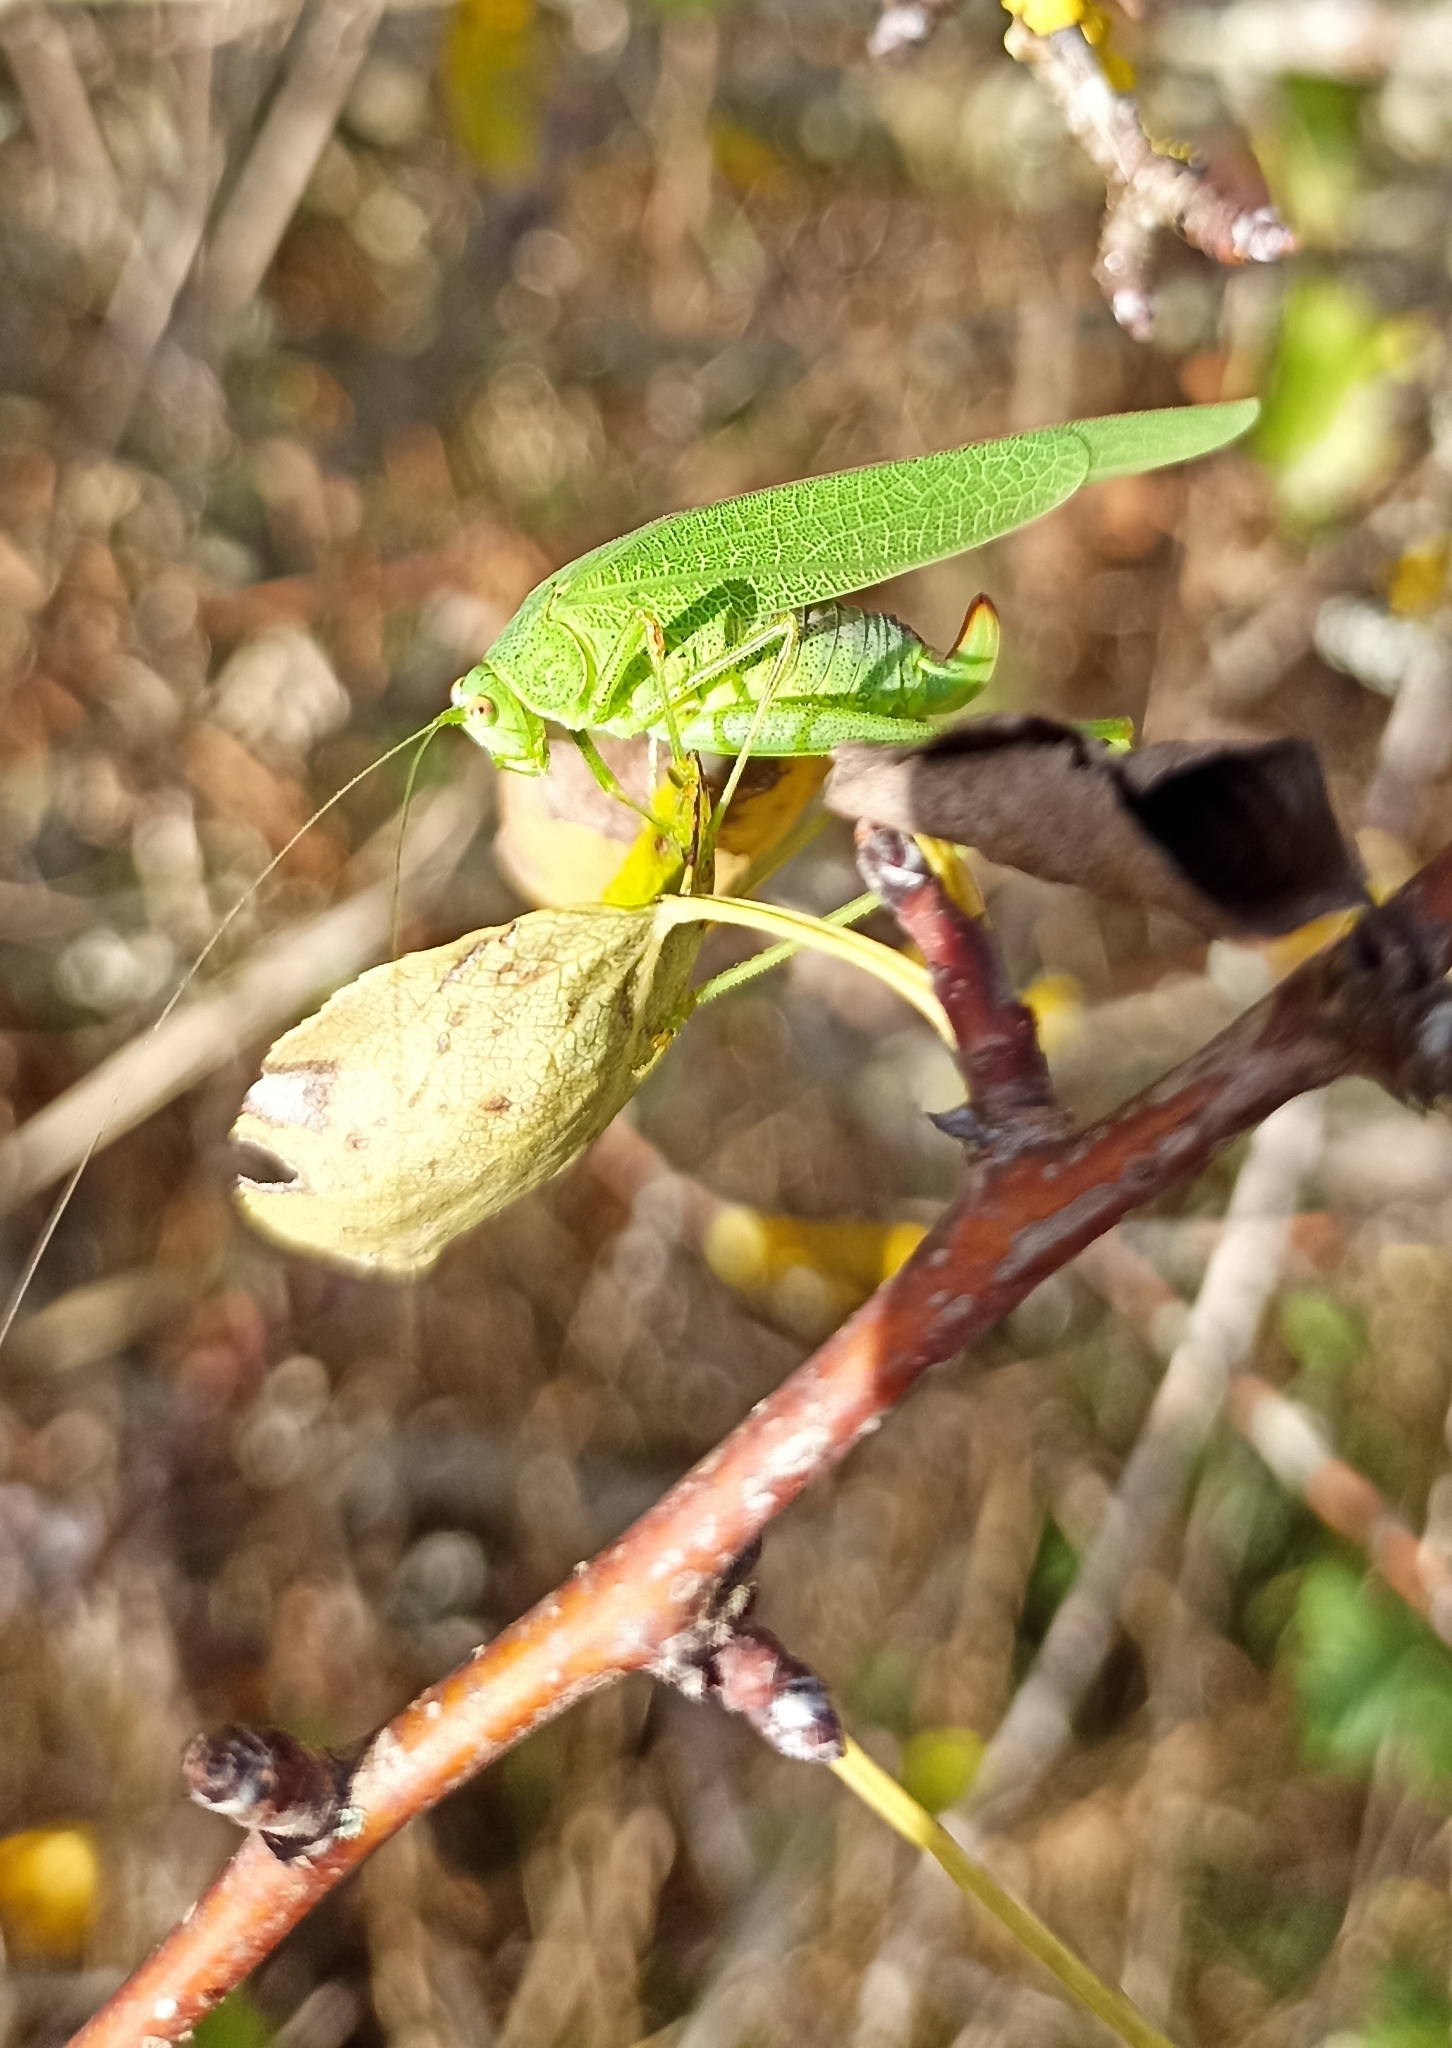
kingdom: Animalia
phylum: Arthropoda
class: Insecta
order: Orthoptera
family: Tettigoniidae
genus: Phaneroptera
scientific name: Phaneroptera nana
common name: Southern sickle bush-cricket
